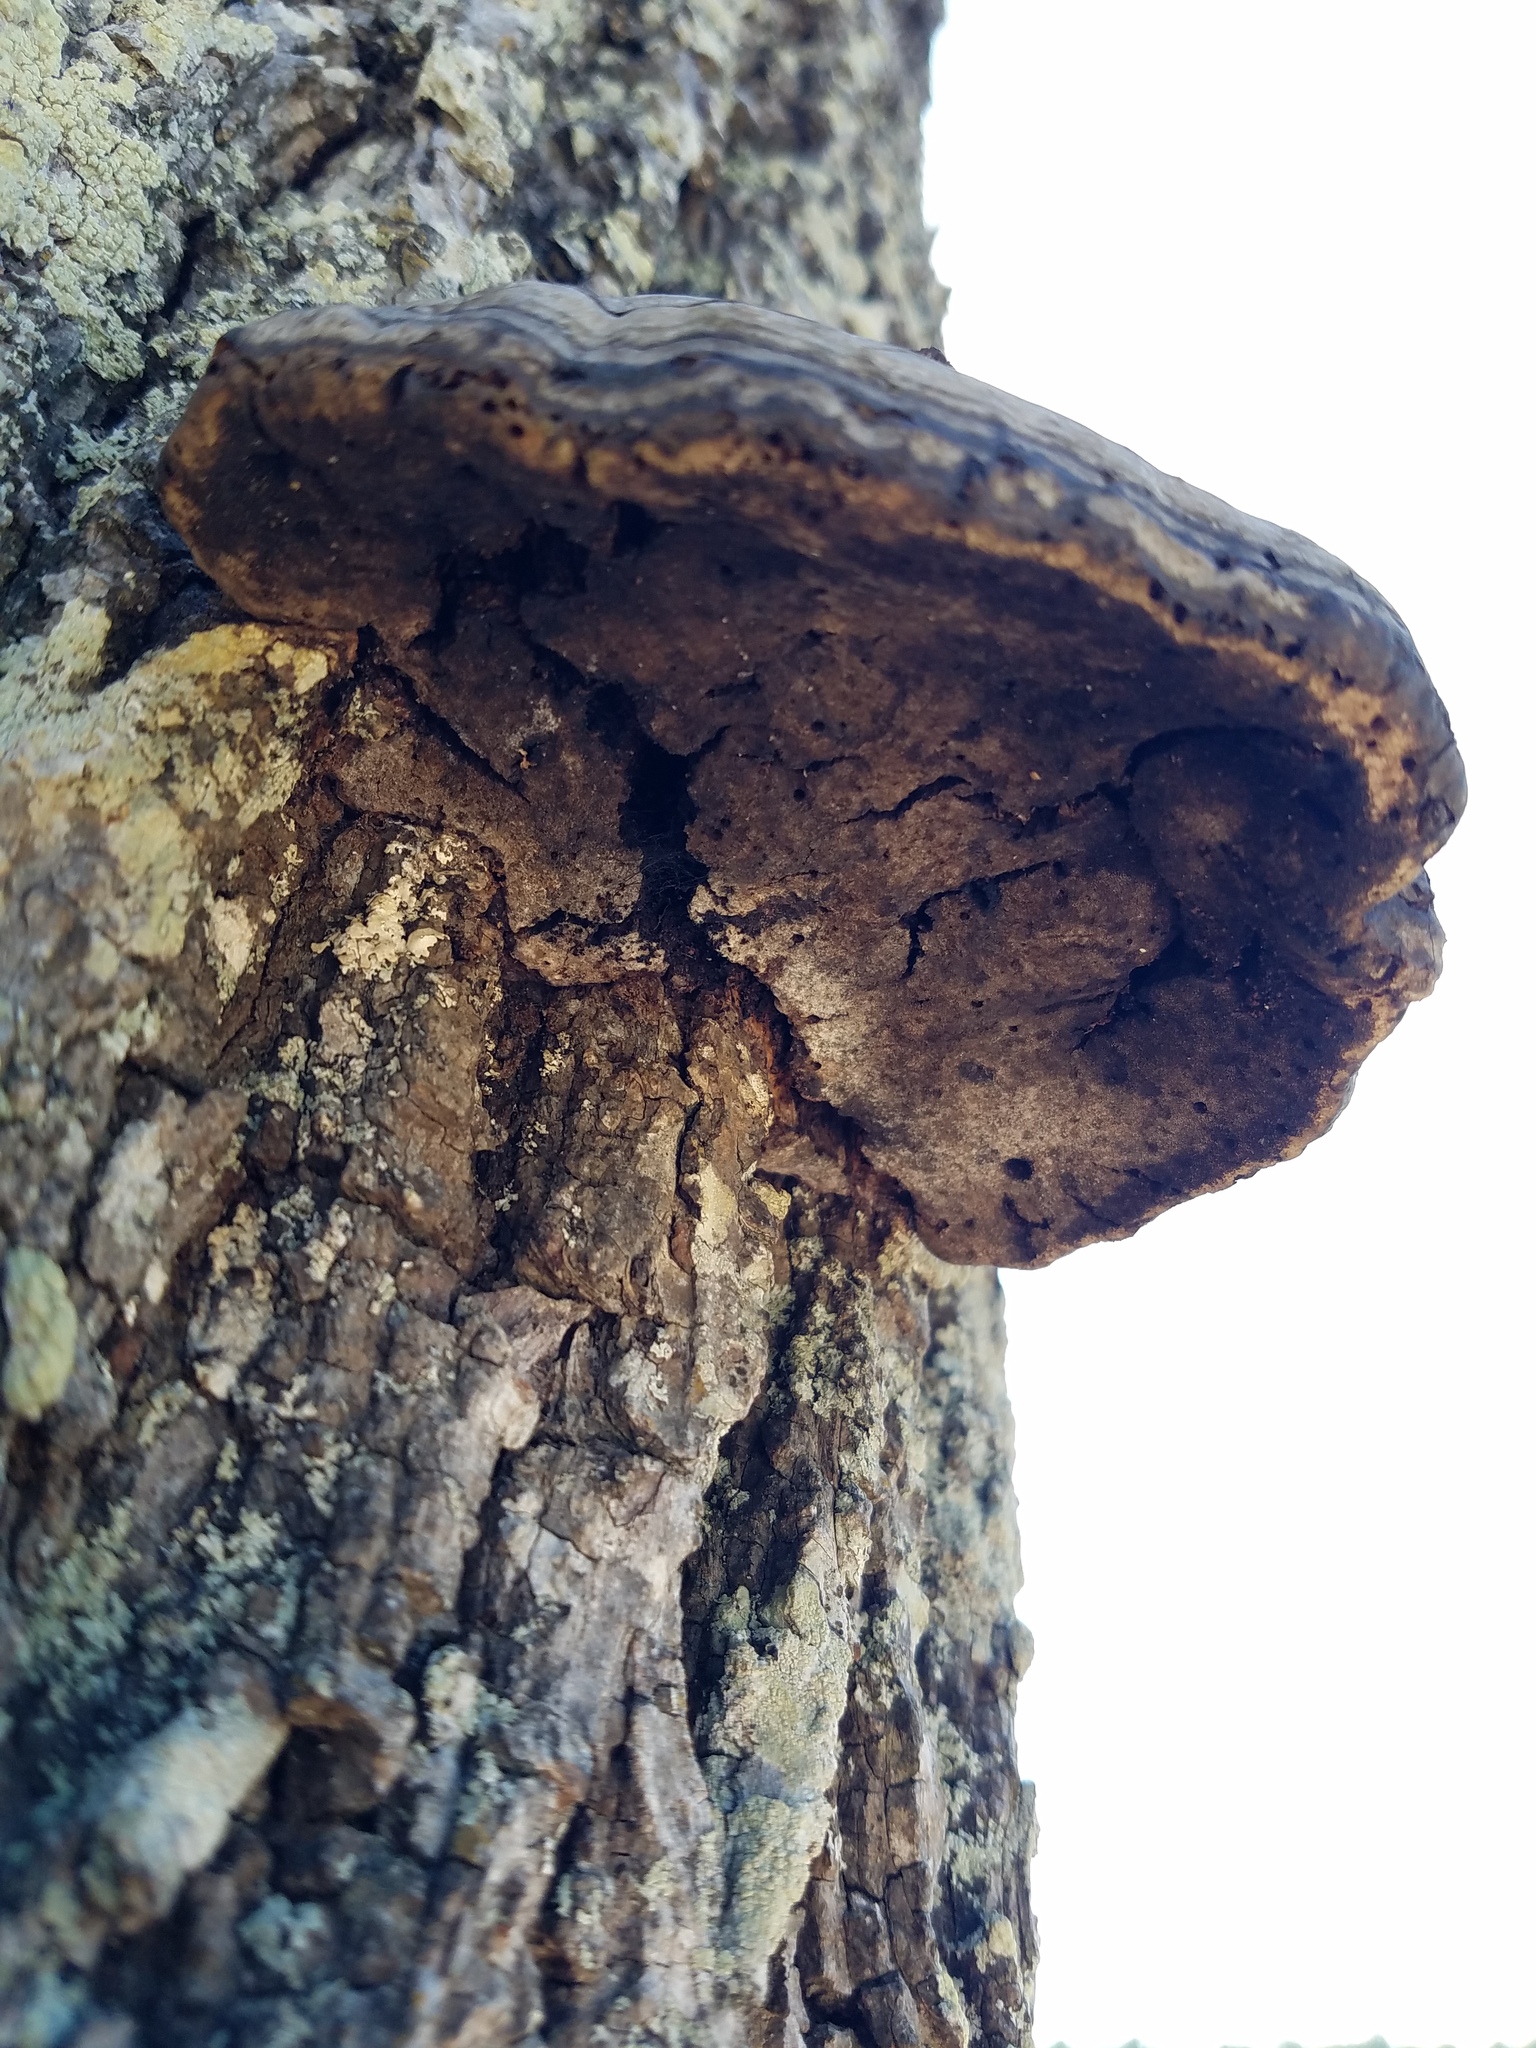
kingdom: Fungi
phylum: Basidiomycota
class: Agaricomycetes
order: Polyporales
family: Polyporaceae
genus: Fomes
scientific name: Fomes fasciatus
